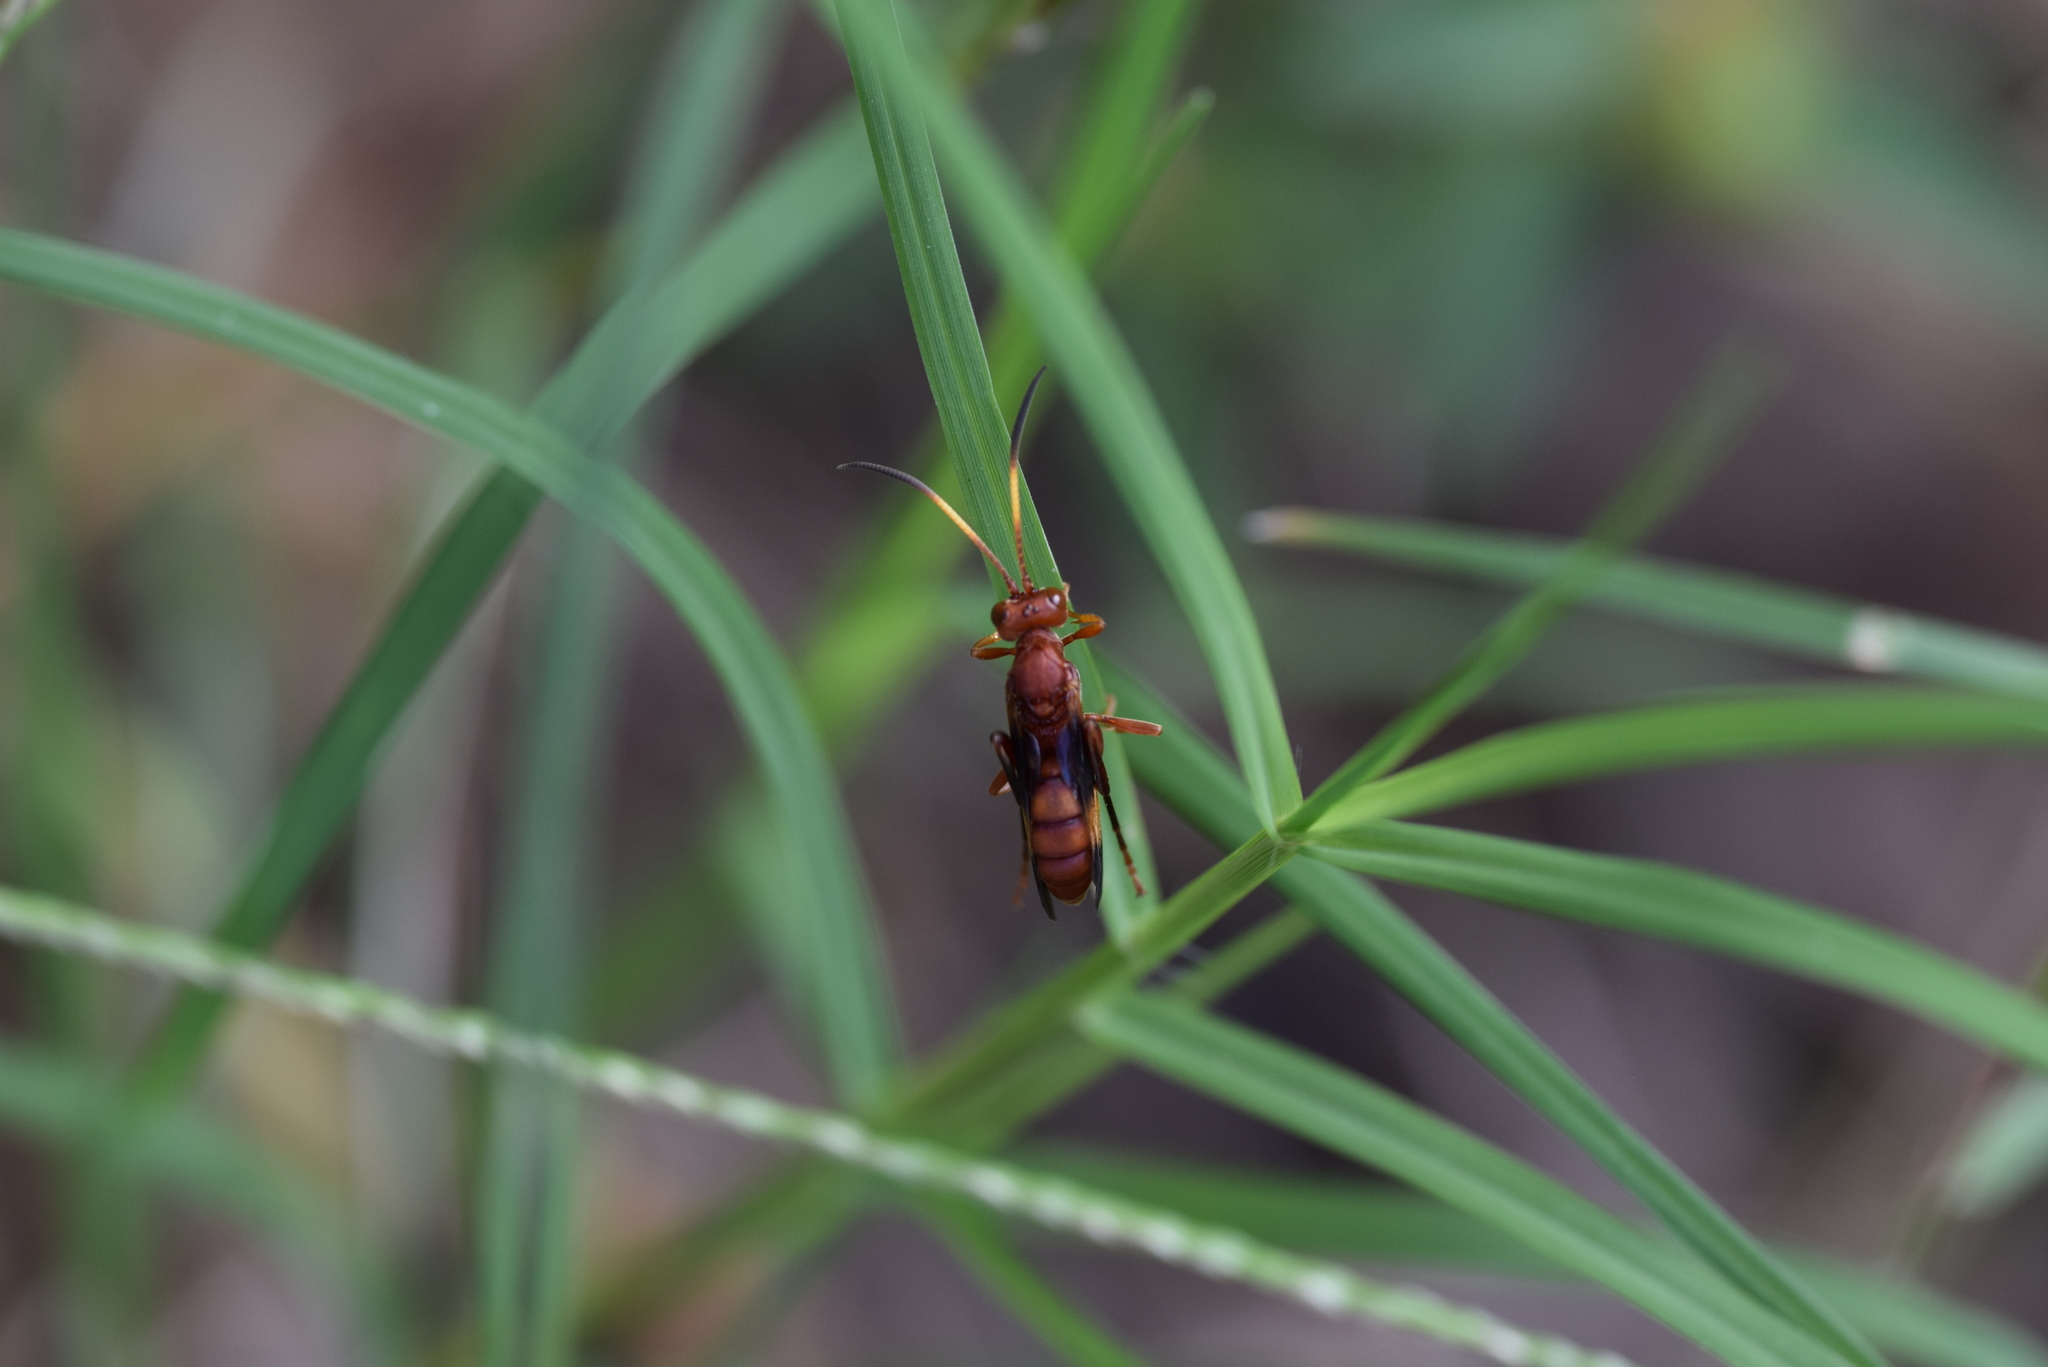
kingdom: Animalia
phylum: Arthropoda
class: Insecta
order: Hymenoptera
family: Ichneumonidae
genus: Trogomorpha
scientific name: Trogomorpha arrogans
